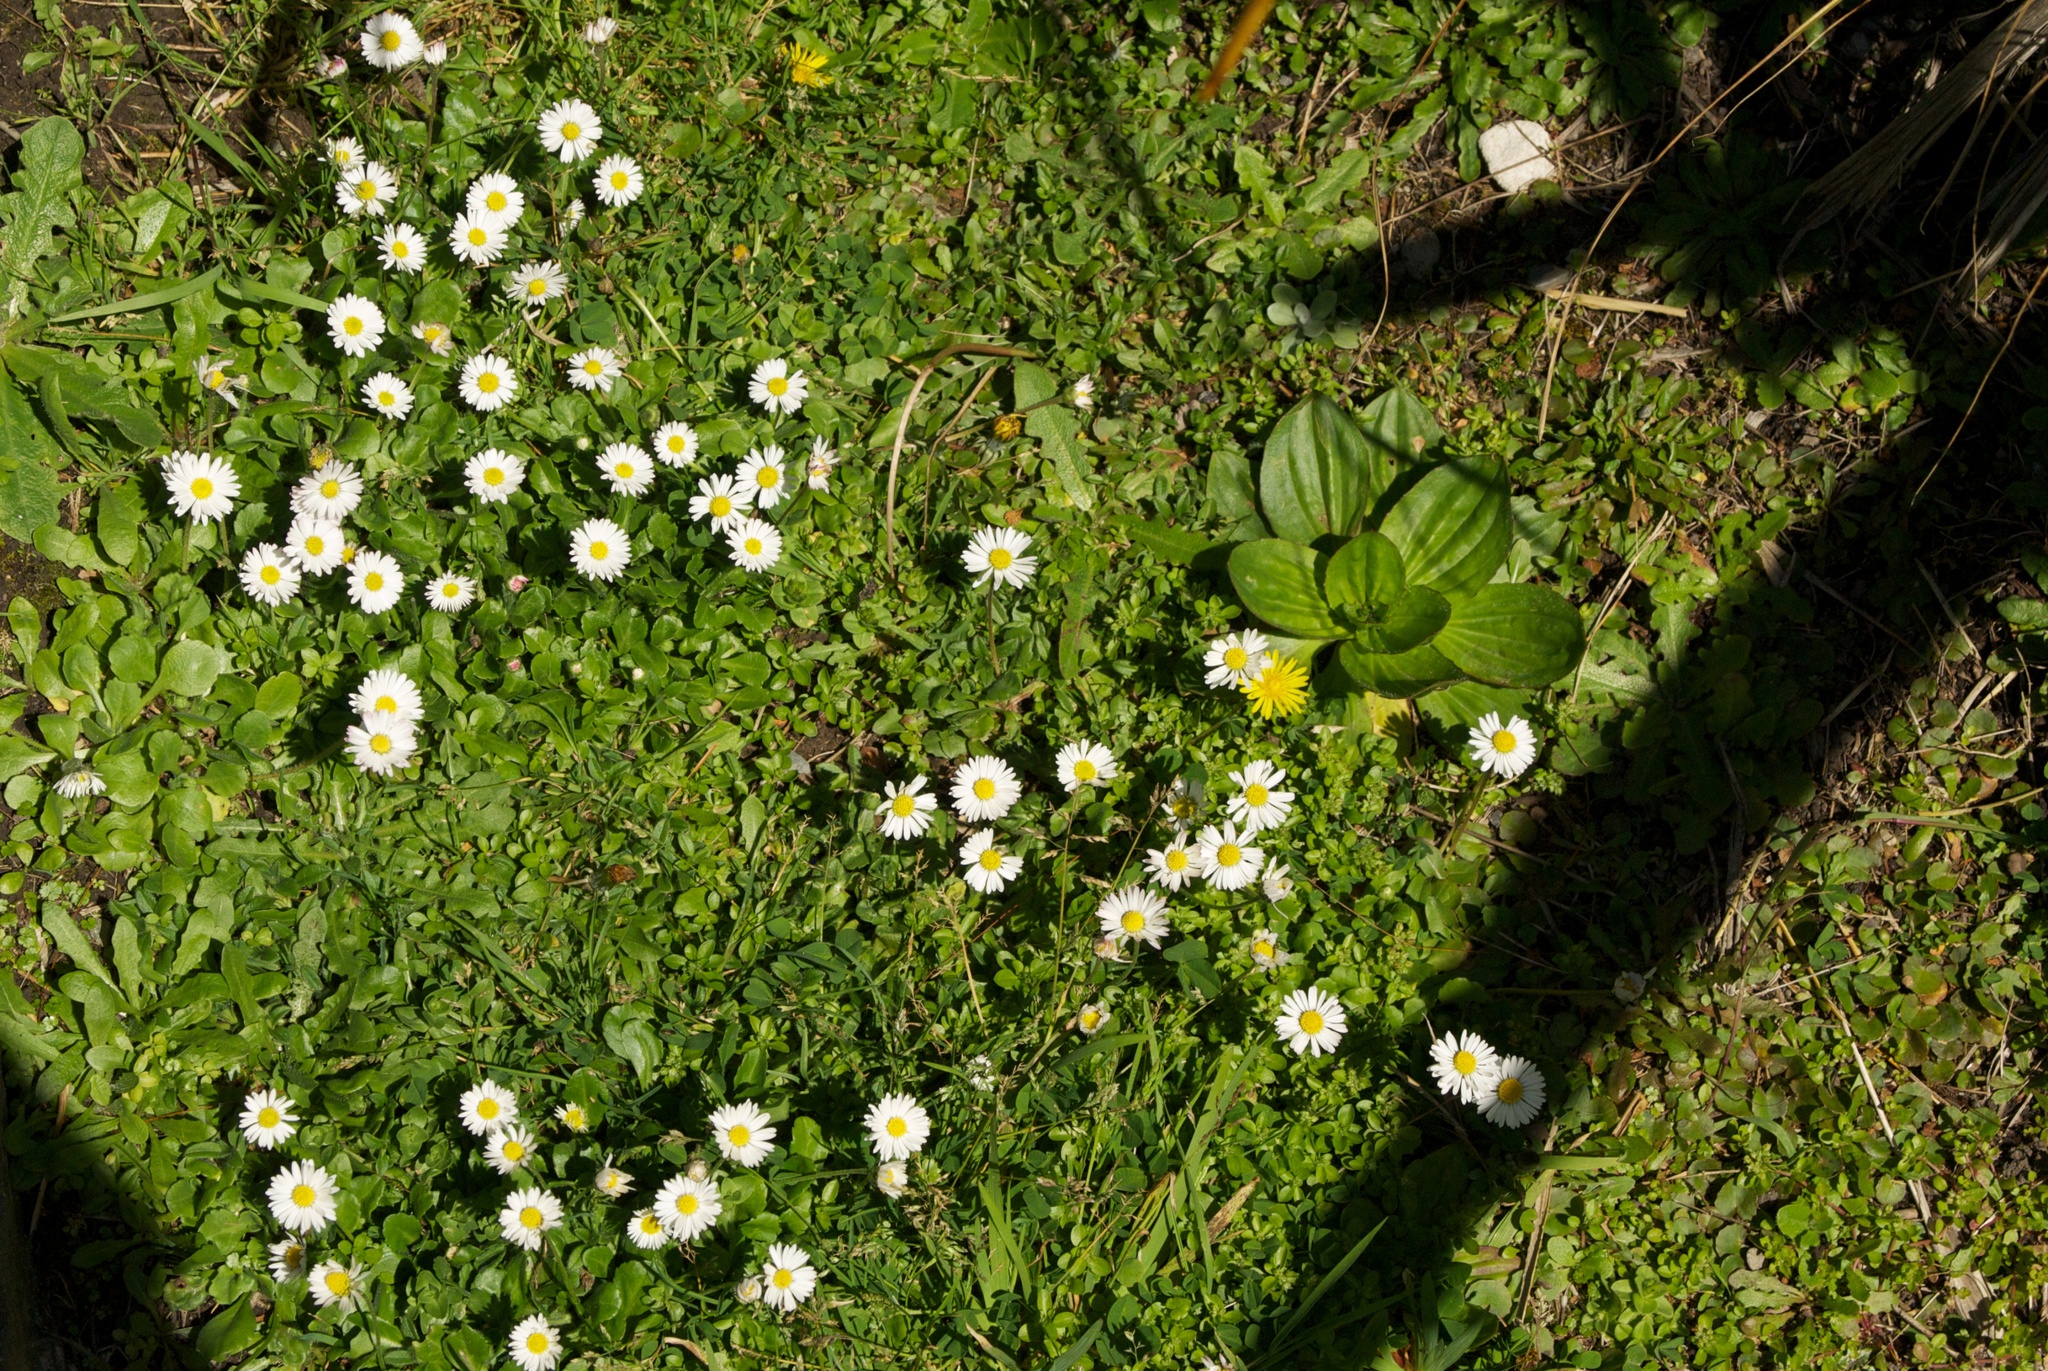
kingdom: Plantae
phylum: Tracheophyta
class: Magnoliopsida
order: Asterales
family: Asteraceae
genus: Bellis
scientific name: Bellis perennis
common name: Lawndaisy
